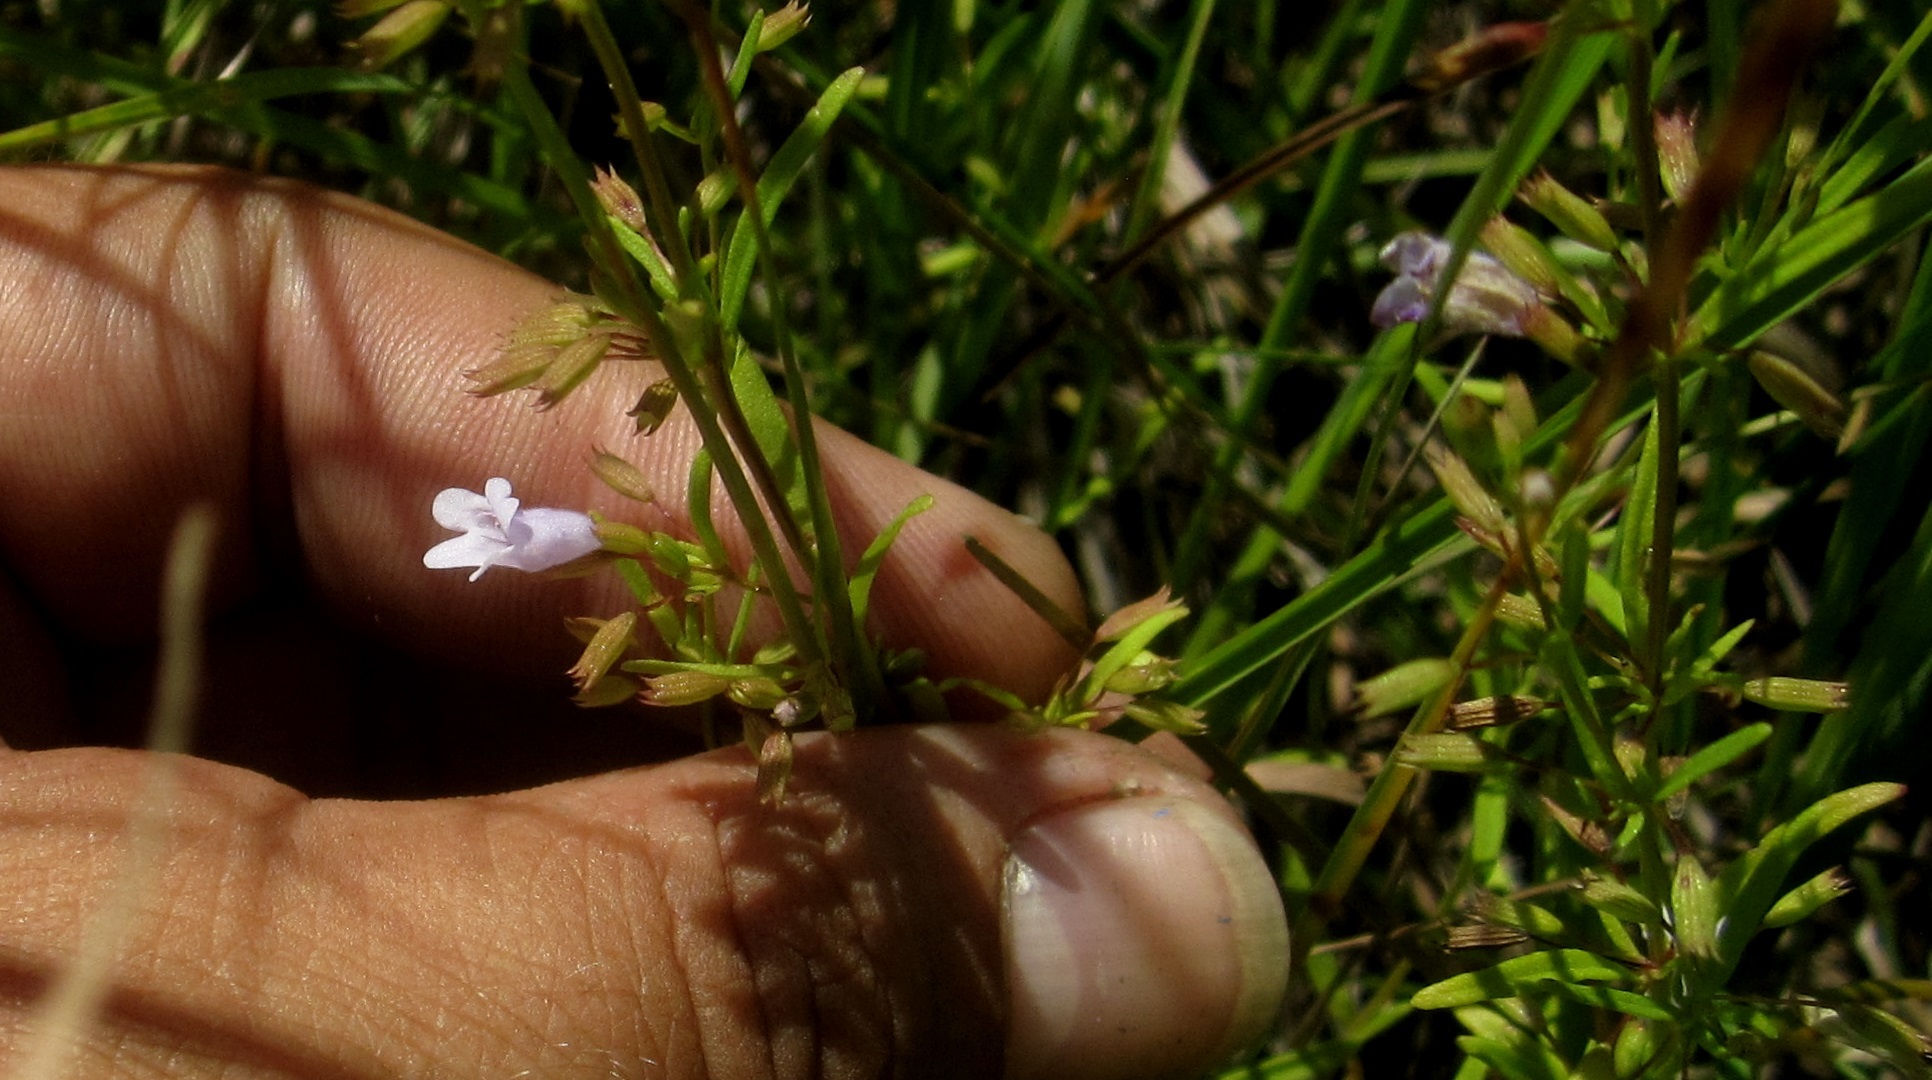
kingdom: Plantae
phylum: Tracheophyta
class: Magnoliopsida
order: Lamiales
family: Lamiaceae
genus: Clinopodium
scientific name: Clinopodium arkansanum
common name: Limestone calamint
